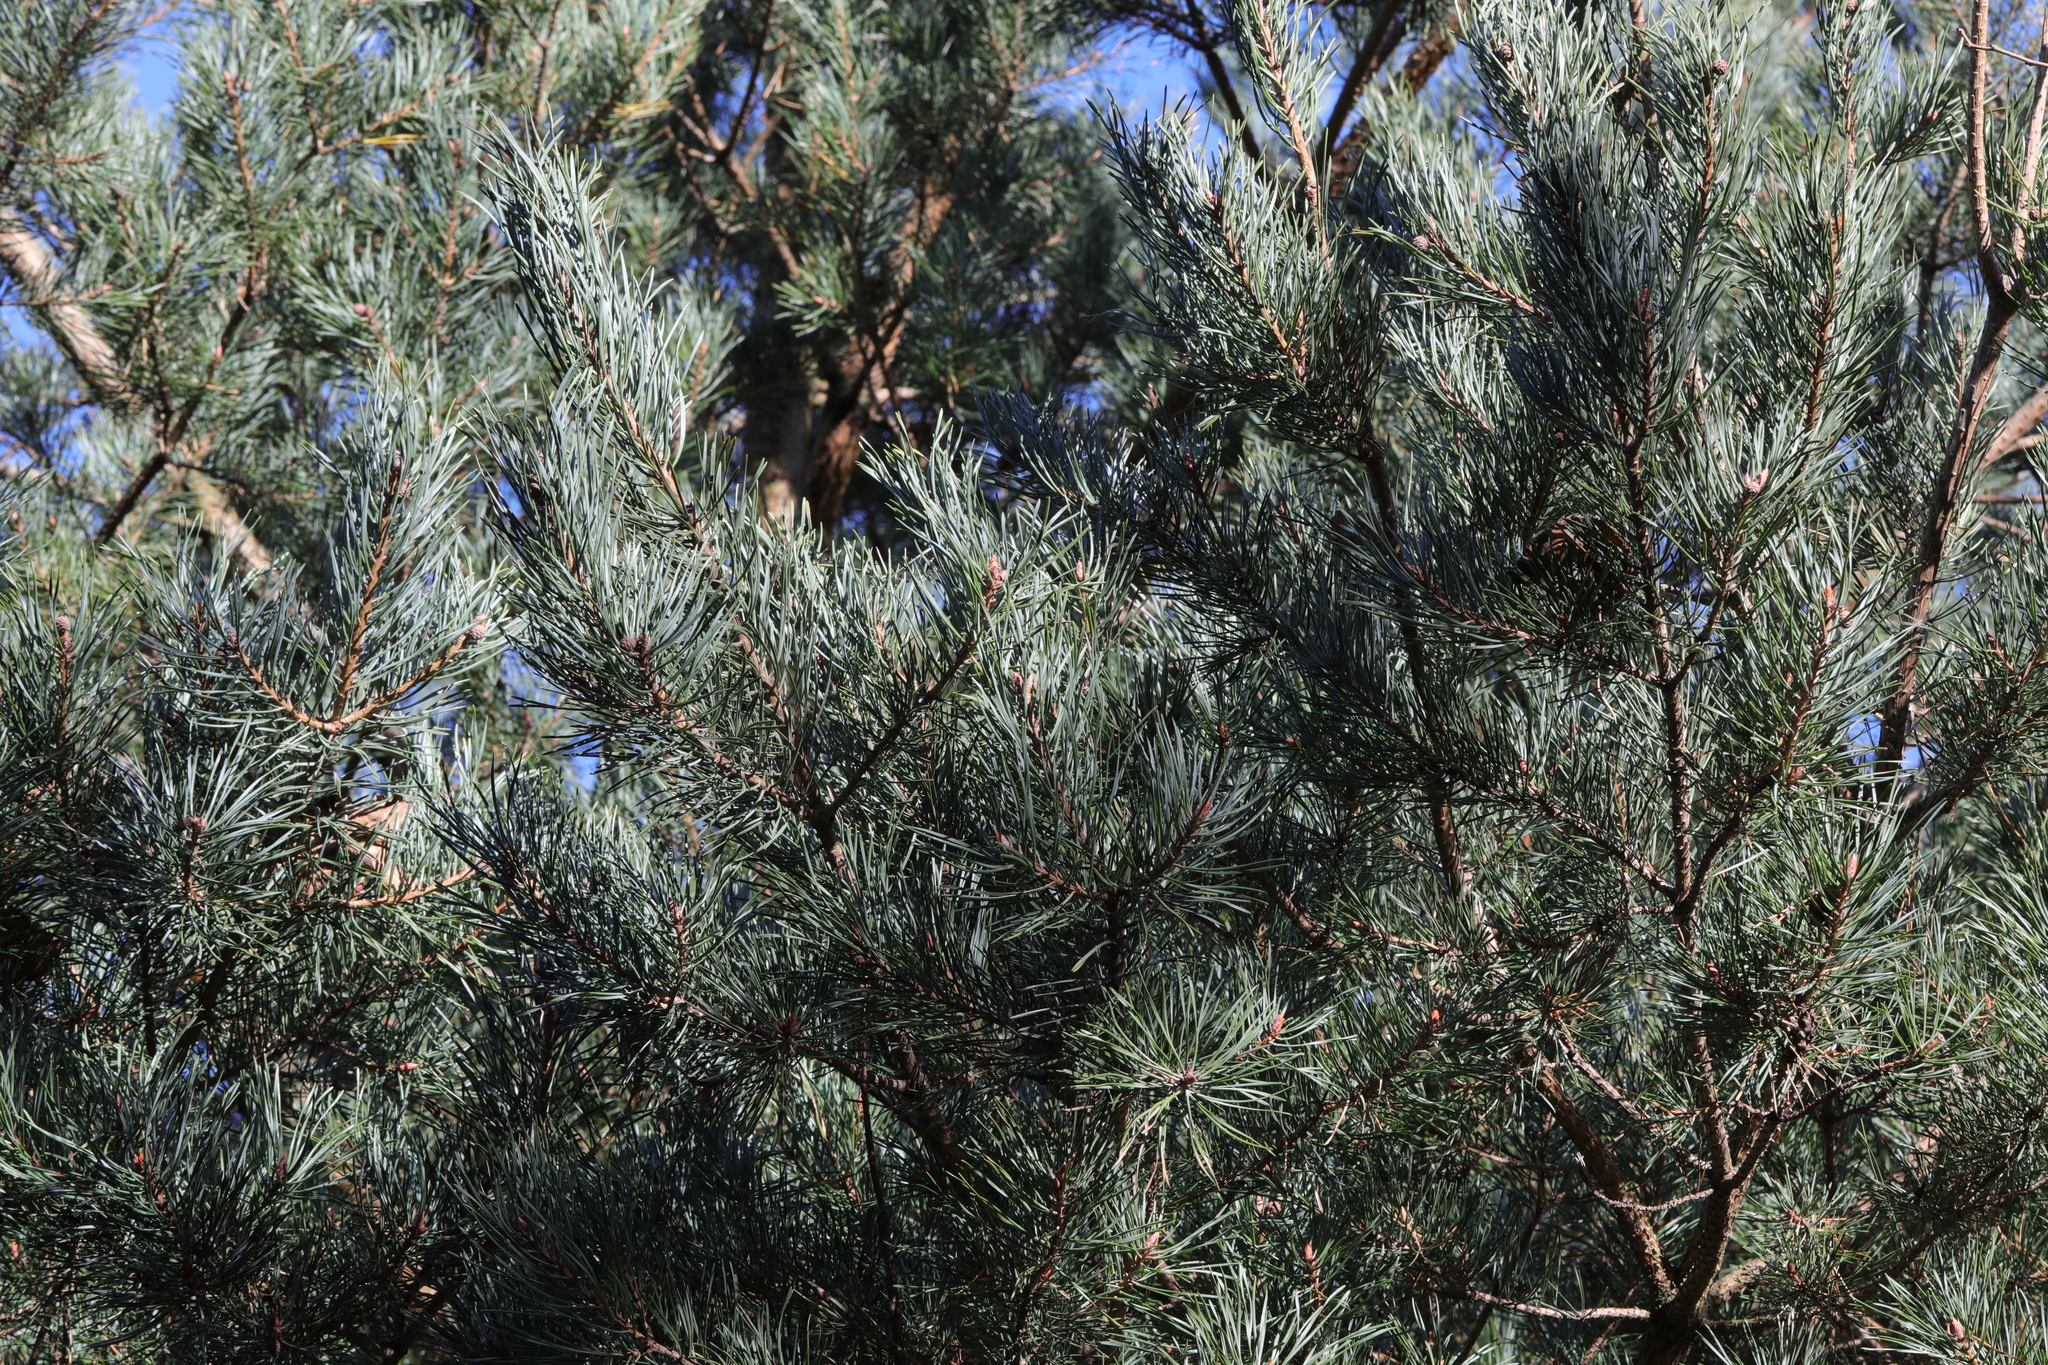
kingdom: Plantae
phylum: Tracheophyta
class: Pinopsida
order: Pinales
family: Pinaceae
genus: Pinus
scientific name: Pinus sylvestris
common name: Scots pine
